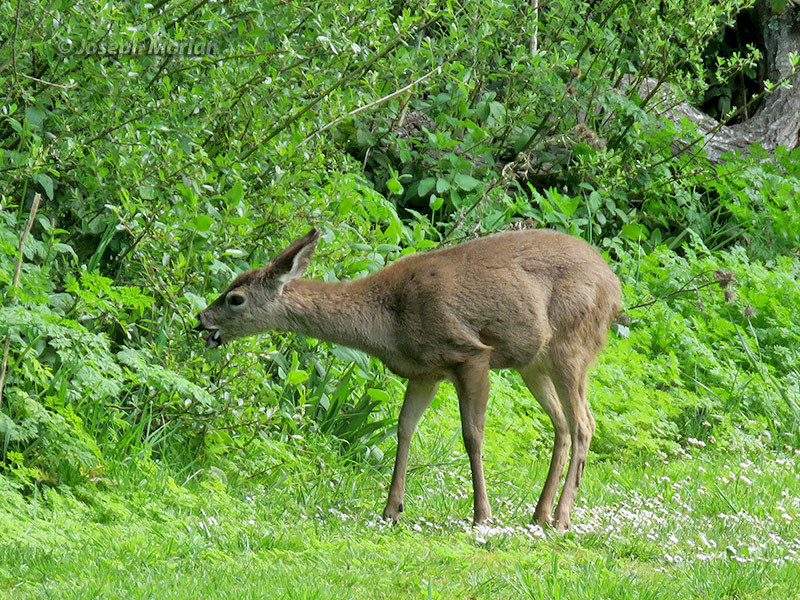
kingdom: Animalia
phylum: Chordata
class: Mammalia
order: Artiodactyla
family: Cervidae
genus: Odocoileus
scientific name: Odocoileus hemionus
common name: Mule deer
